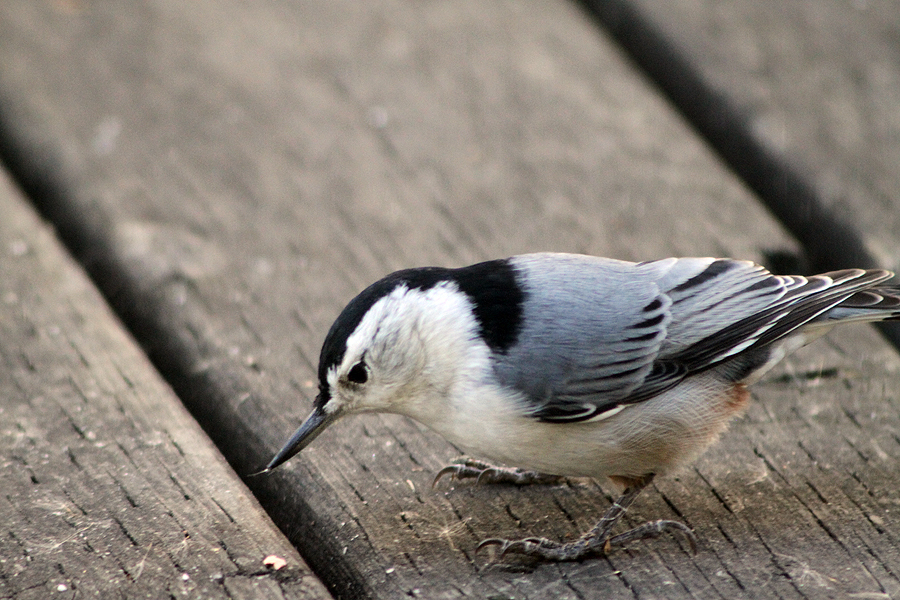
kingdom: Animalia
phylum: Chordata
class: Aves
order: Passeriformes
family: Sittidae
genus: Sitta
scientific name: Sitta carolinensis
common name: White-breasted nuthatch
